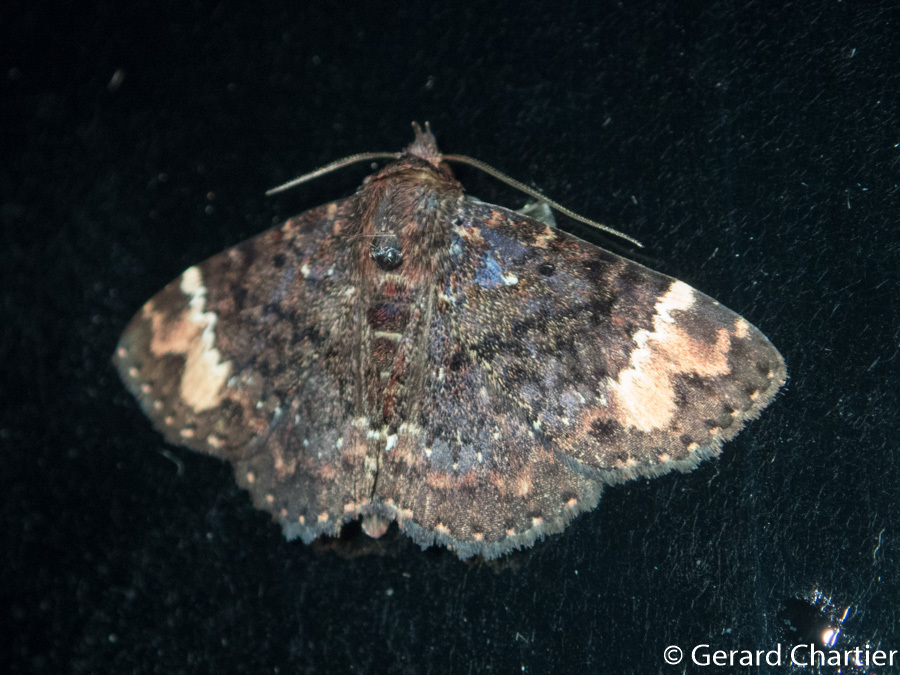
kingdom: Animalia
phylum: Arthropoda
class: Insecta
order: Lepidoptera
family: Erebidae
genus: Diomea
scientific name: Diomea tricuspida
